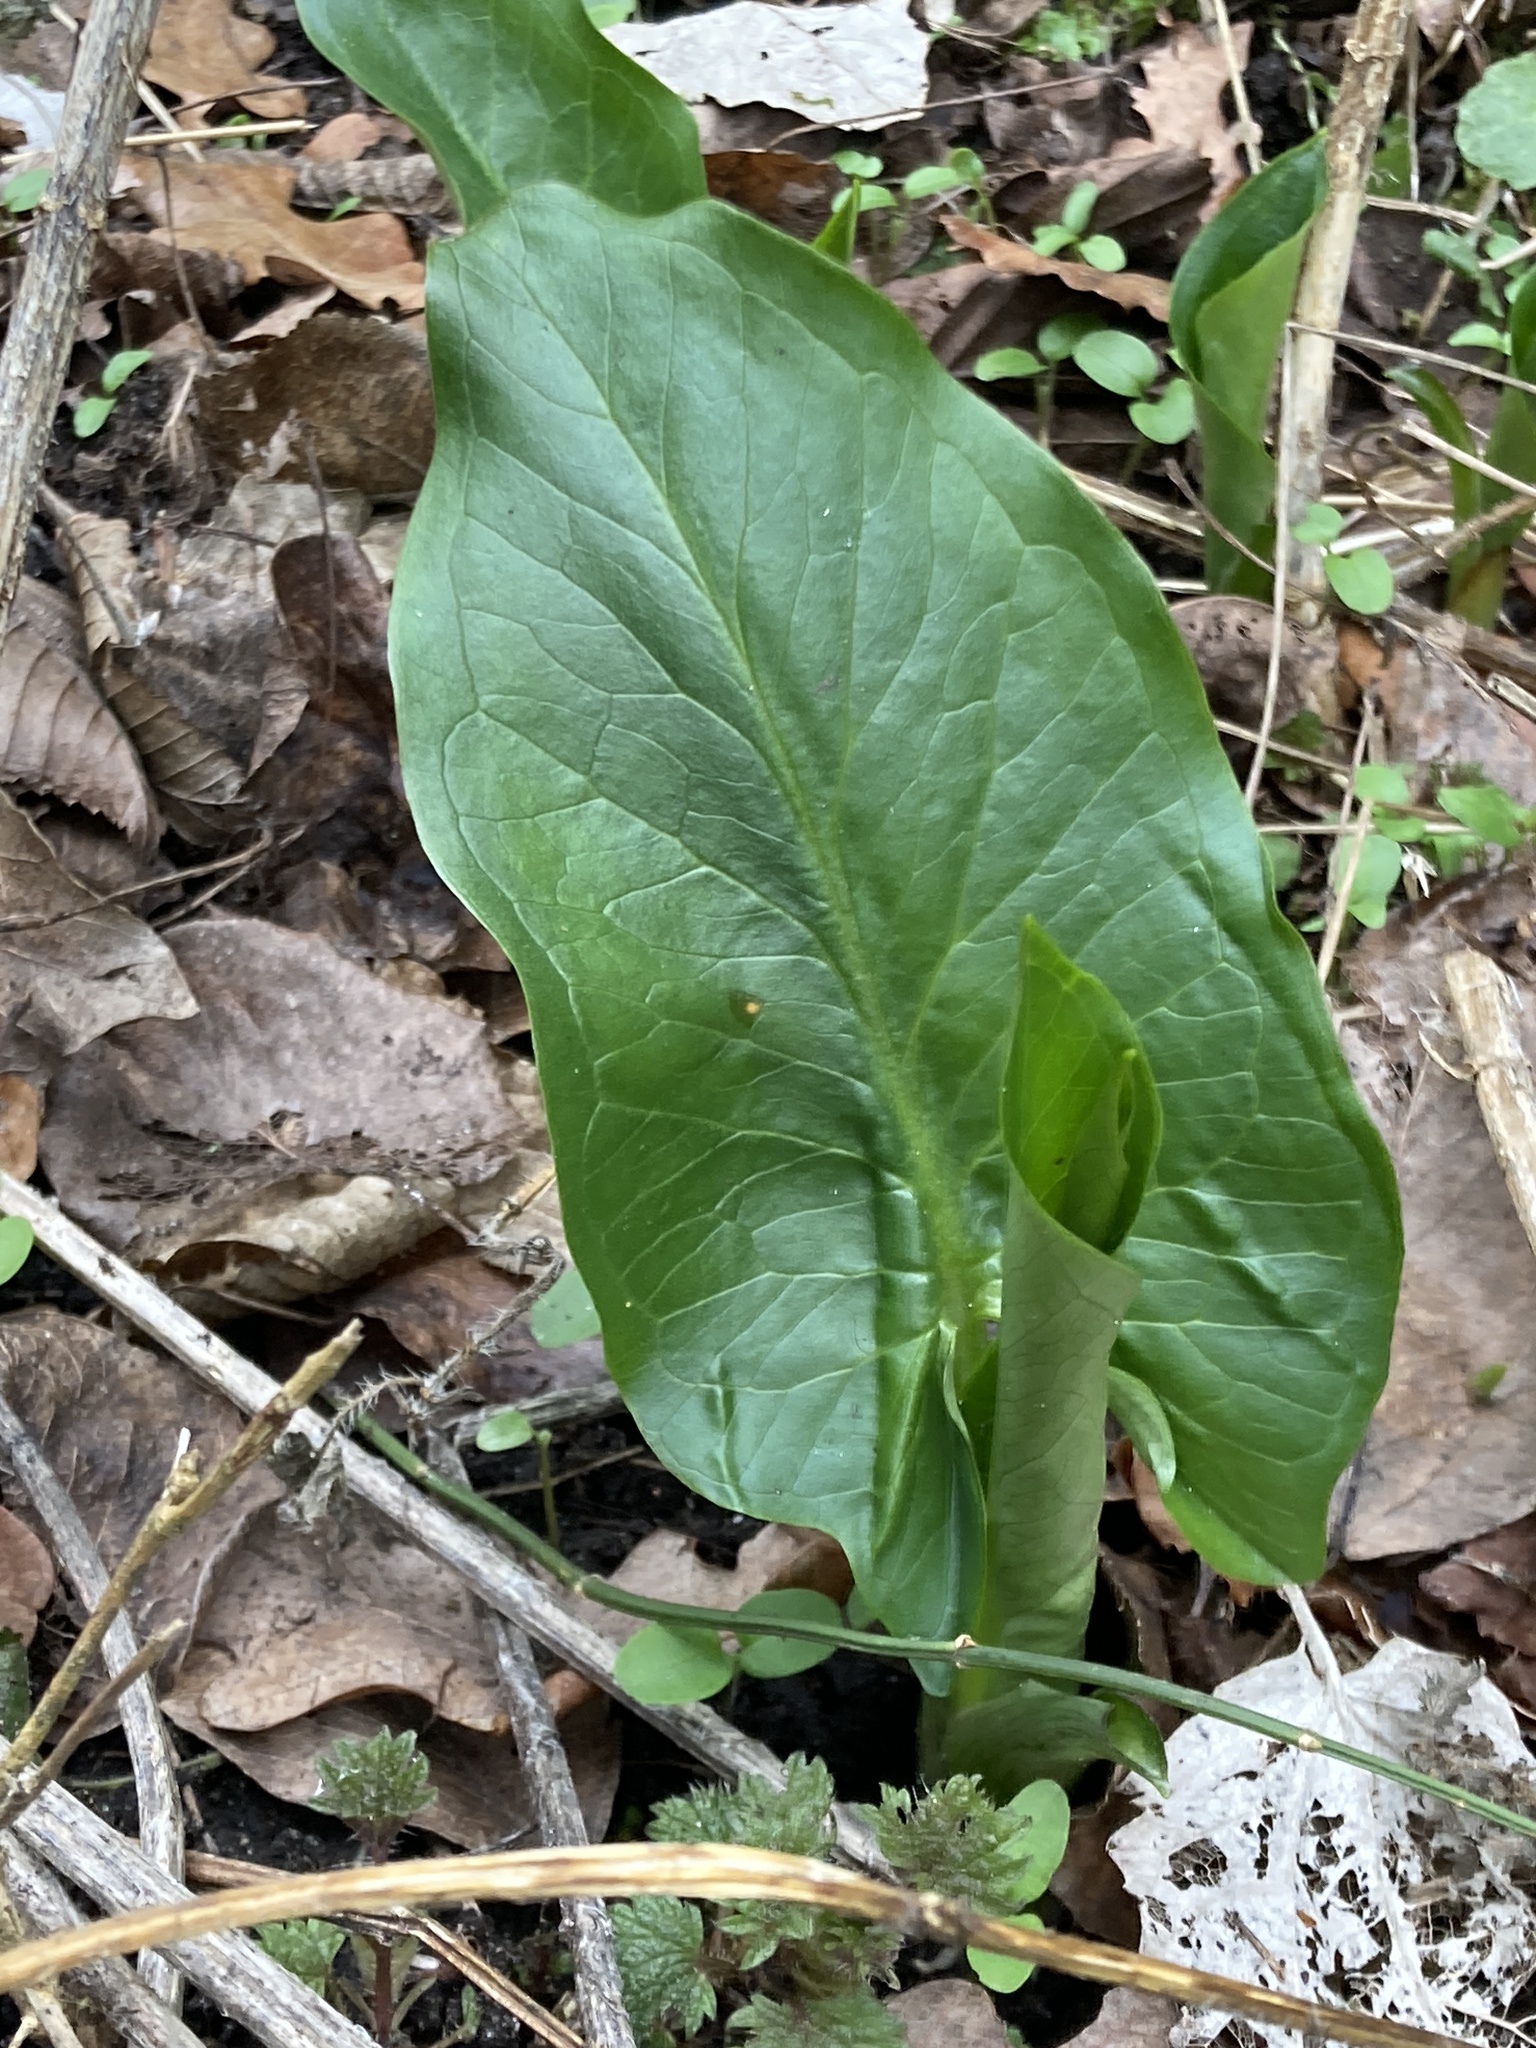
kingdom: Plantae
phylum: Tracheophyta
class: Liliopsida
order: Alismatales
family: Araceae
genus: Arum
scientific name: Arum maculatum
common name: Lords-and-ladies
